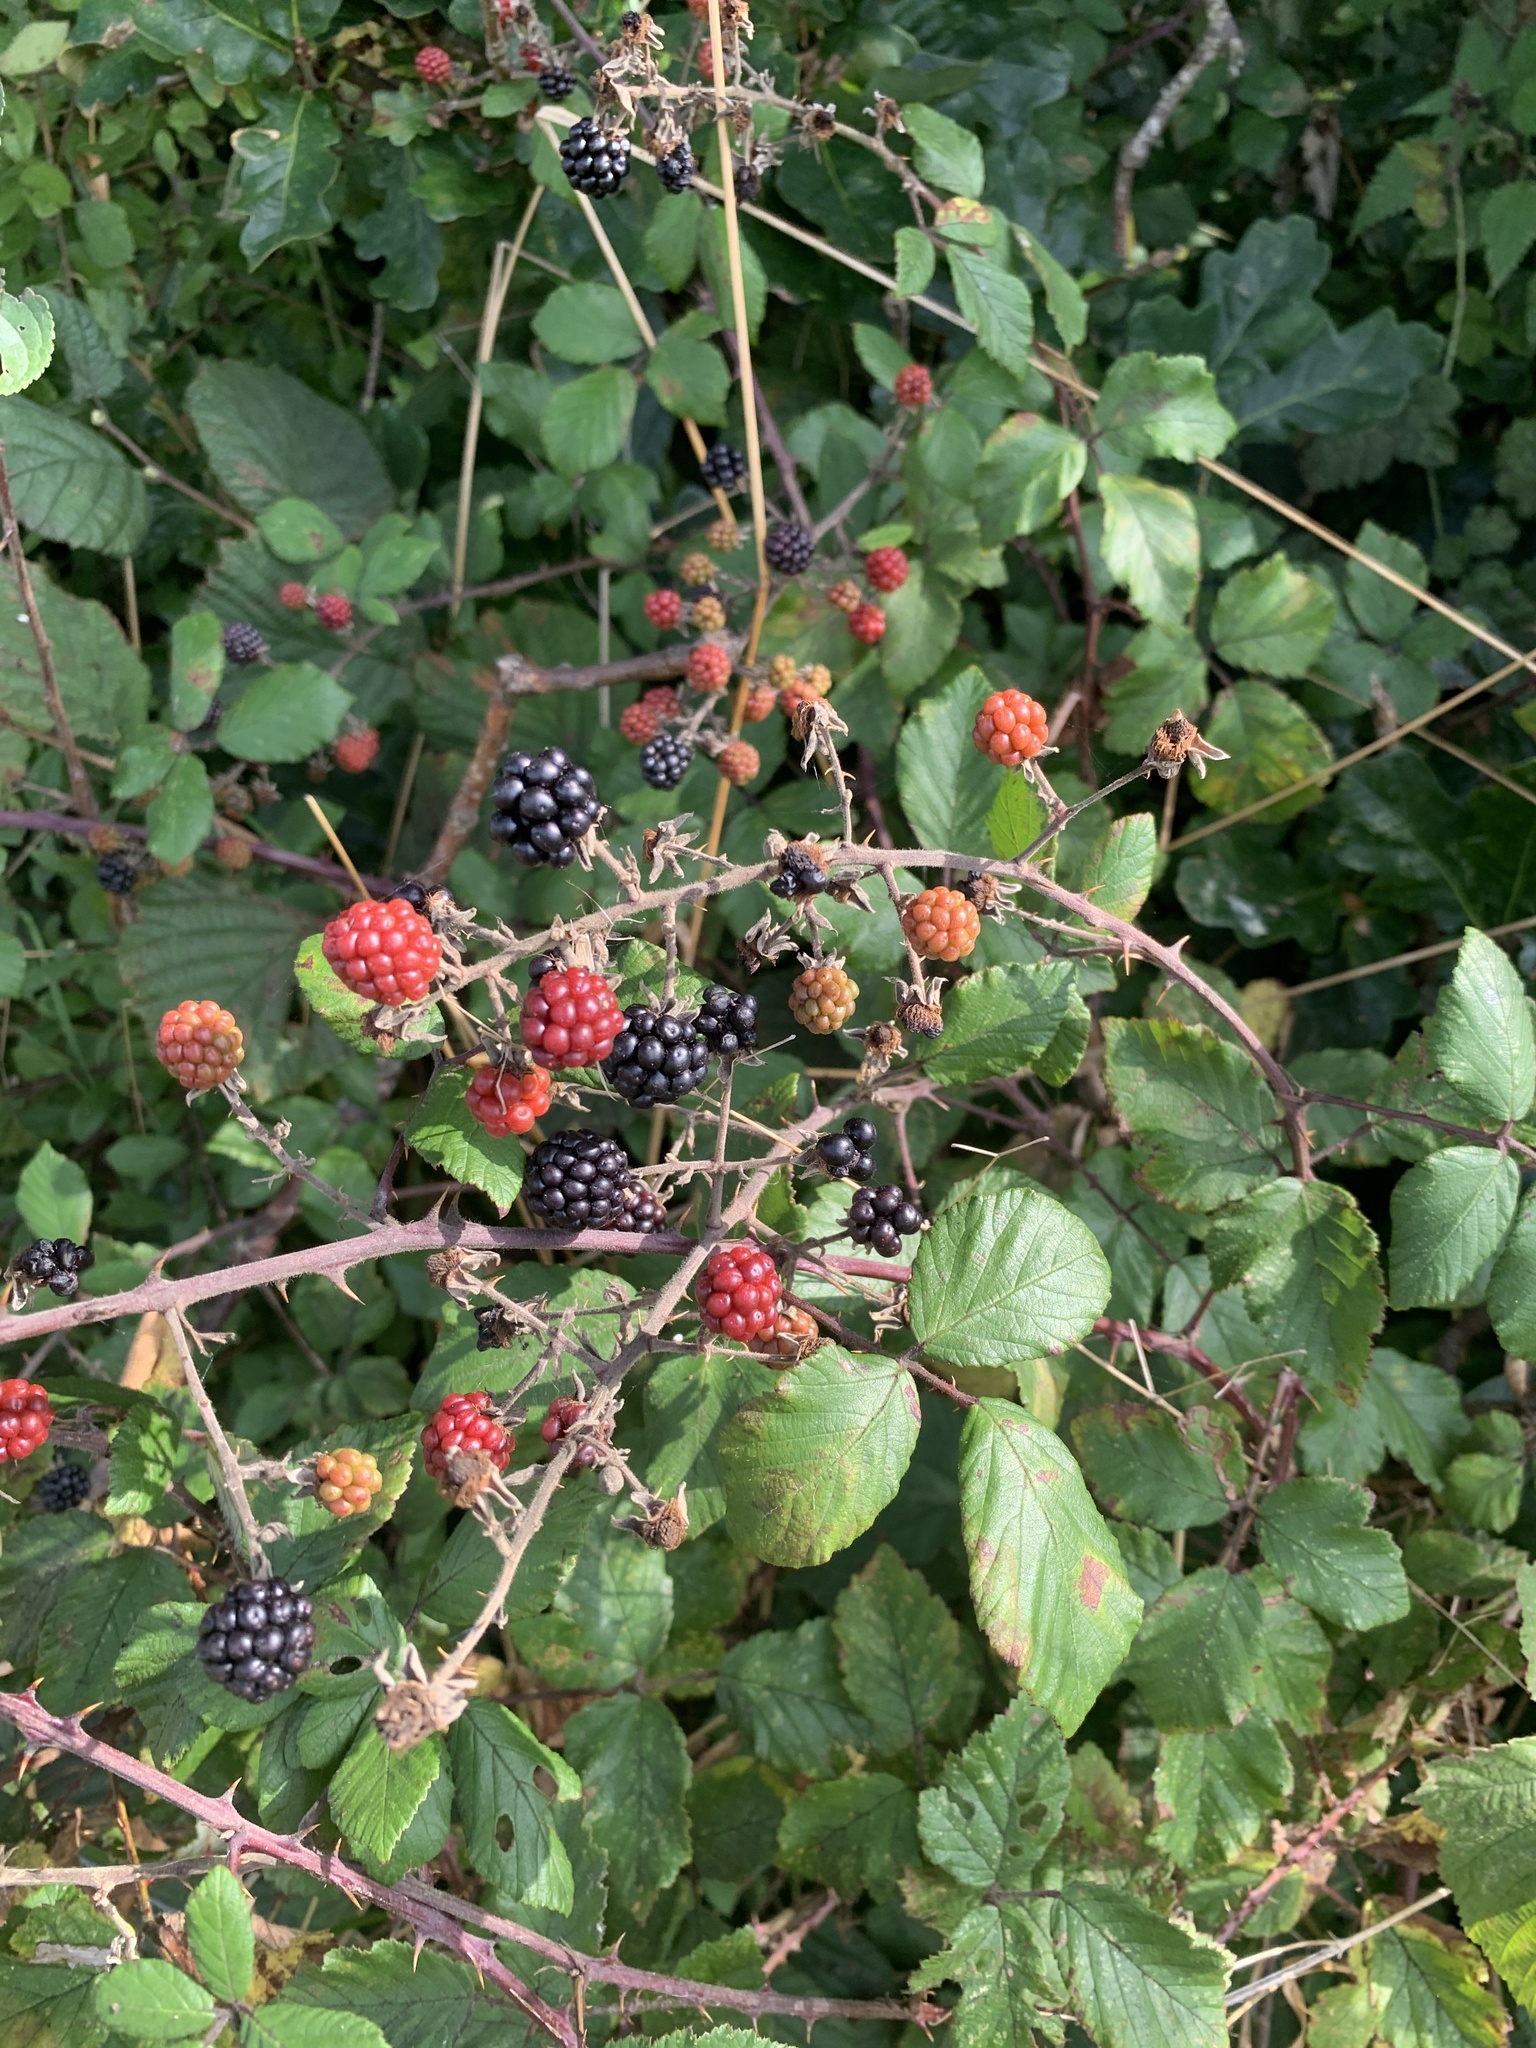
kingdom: Plantae
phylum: Tracheophyta
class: Magnoliopsida
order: Rosales
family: Rosaceae
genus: Rubus
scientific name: Rubus fruticosus
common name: Blackberry, bramble
